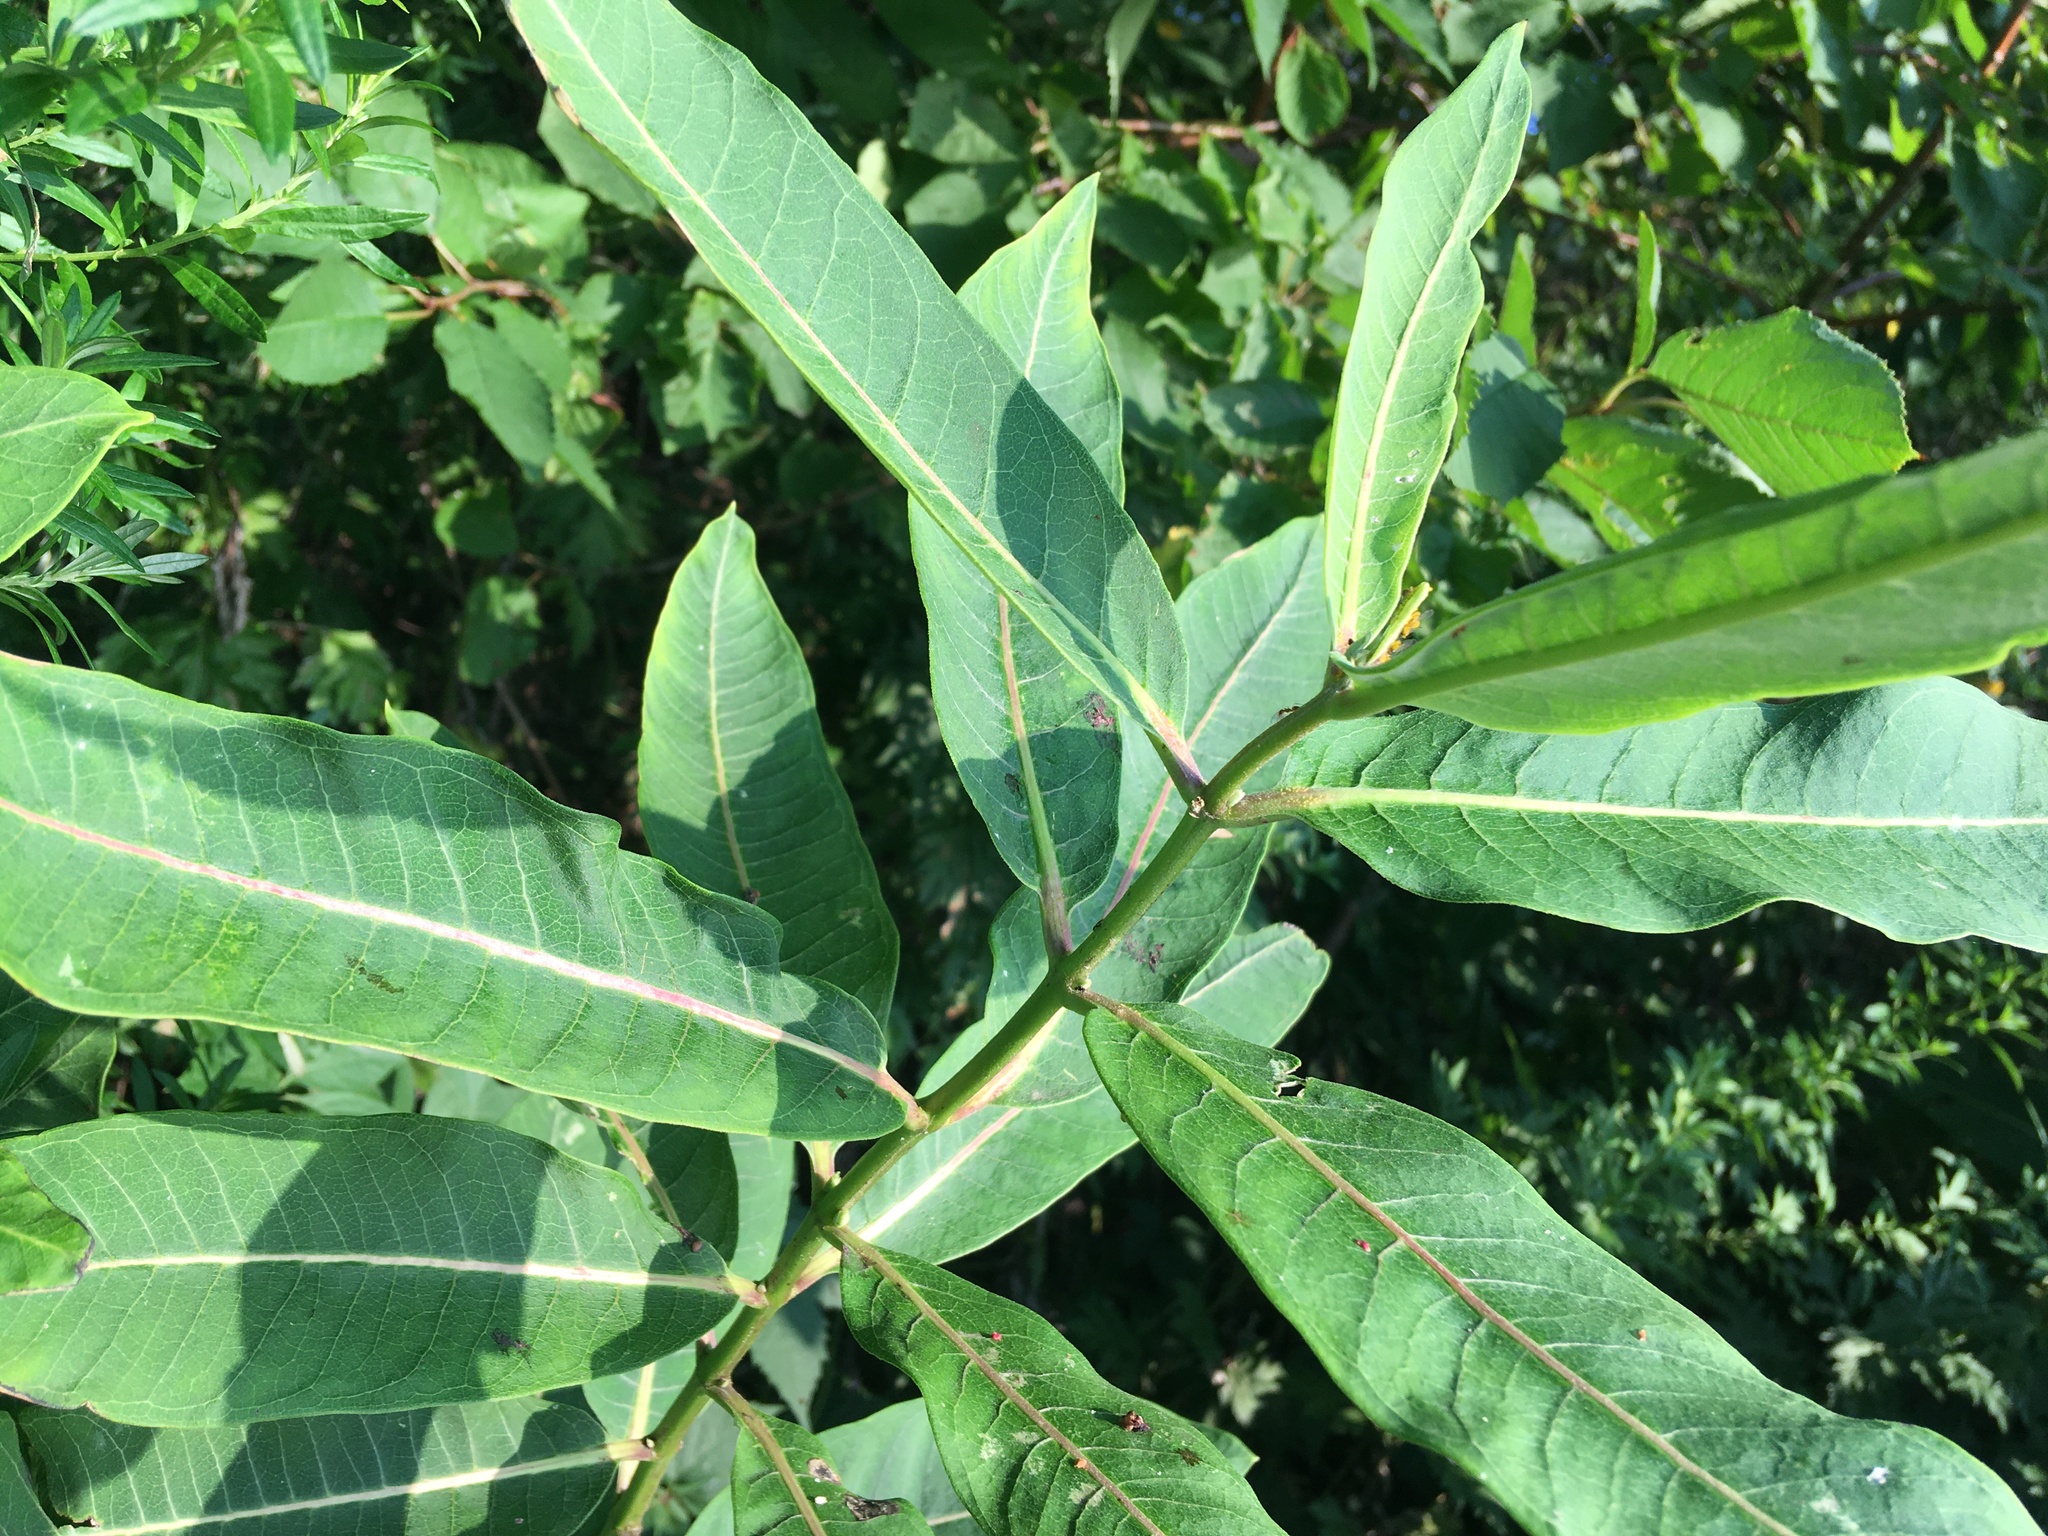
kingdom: Plantae
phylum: Tracheophyta
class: Magnoliopsida
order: Gentianales
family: Apocynaceae
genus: Asclepias
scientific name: Asclepias syriaca
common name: Common milkweed
